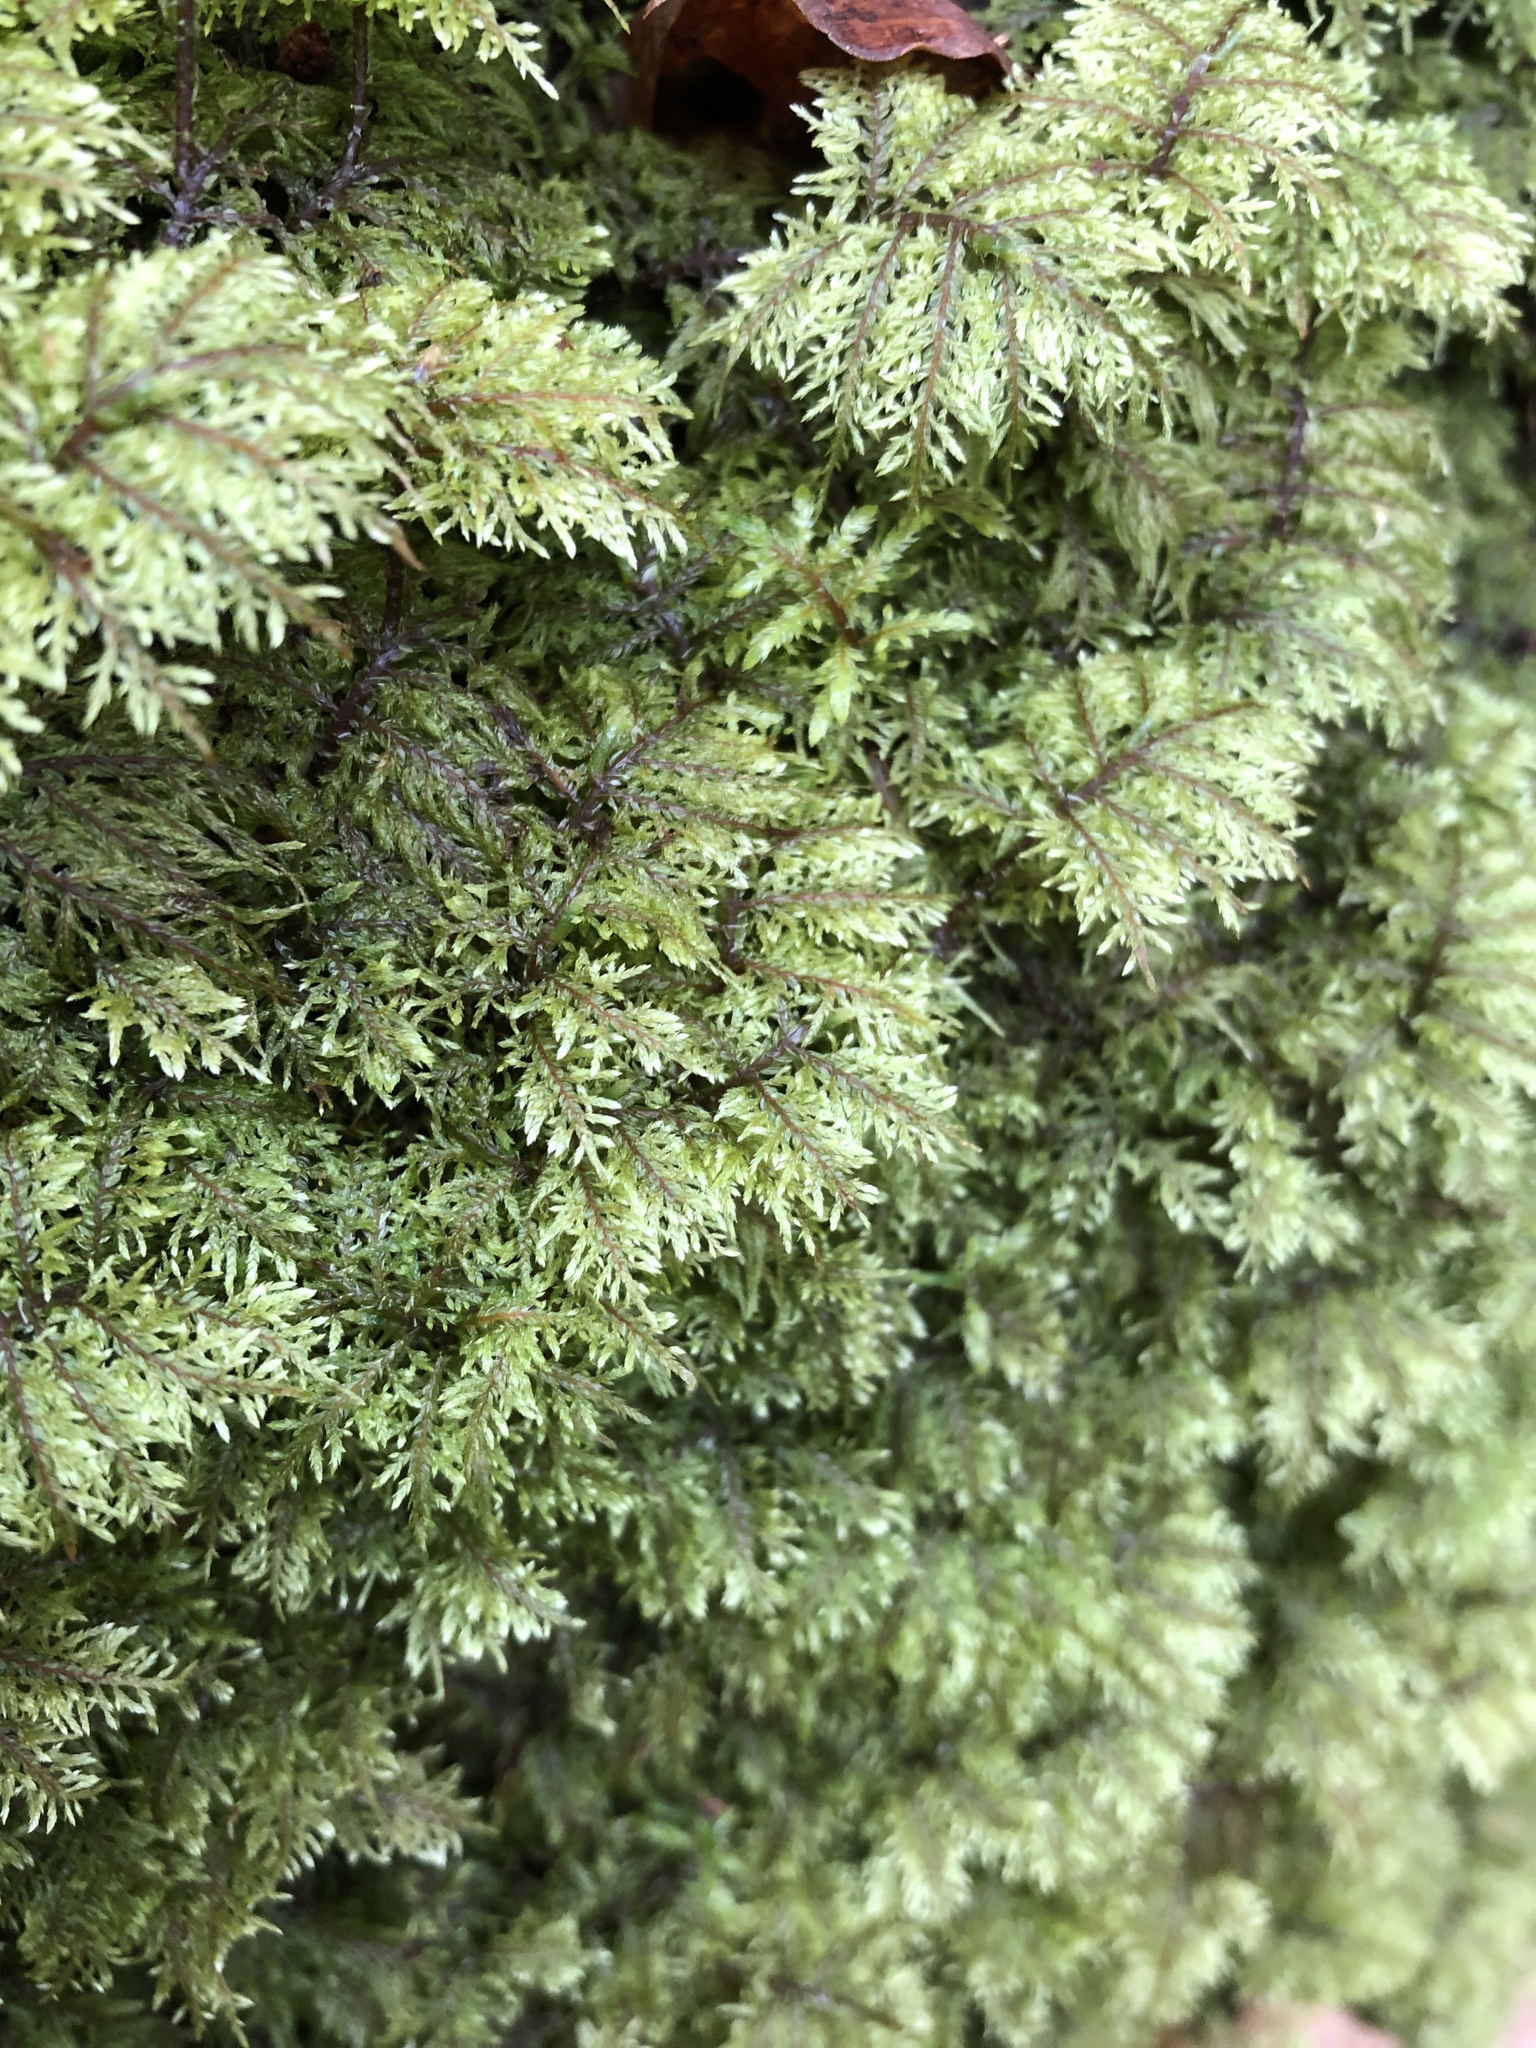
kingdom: Plantae
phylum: Bryophyta
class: Bryopsida
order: Hypnales
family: Hylocomiaceae
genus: Hylocomium
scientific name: Hylocomium splendens
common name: Stairstep moss
